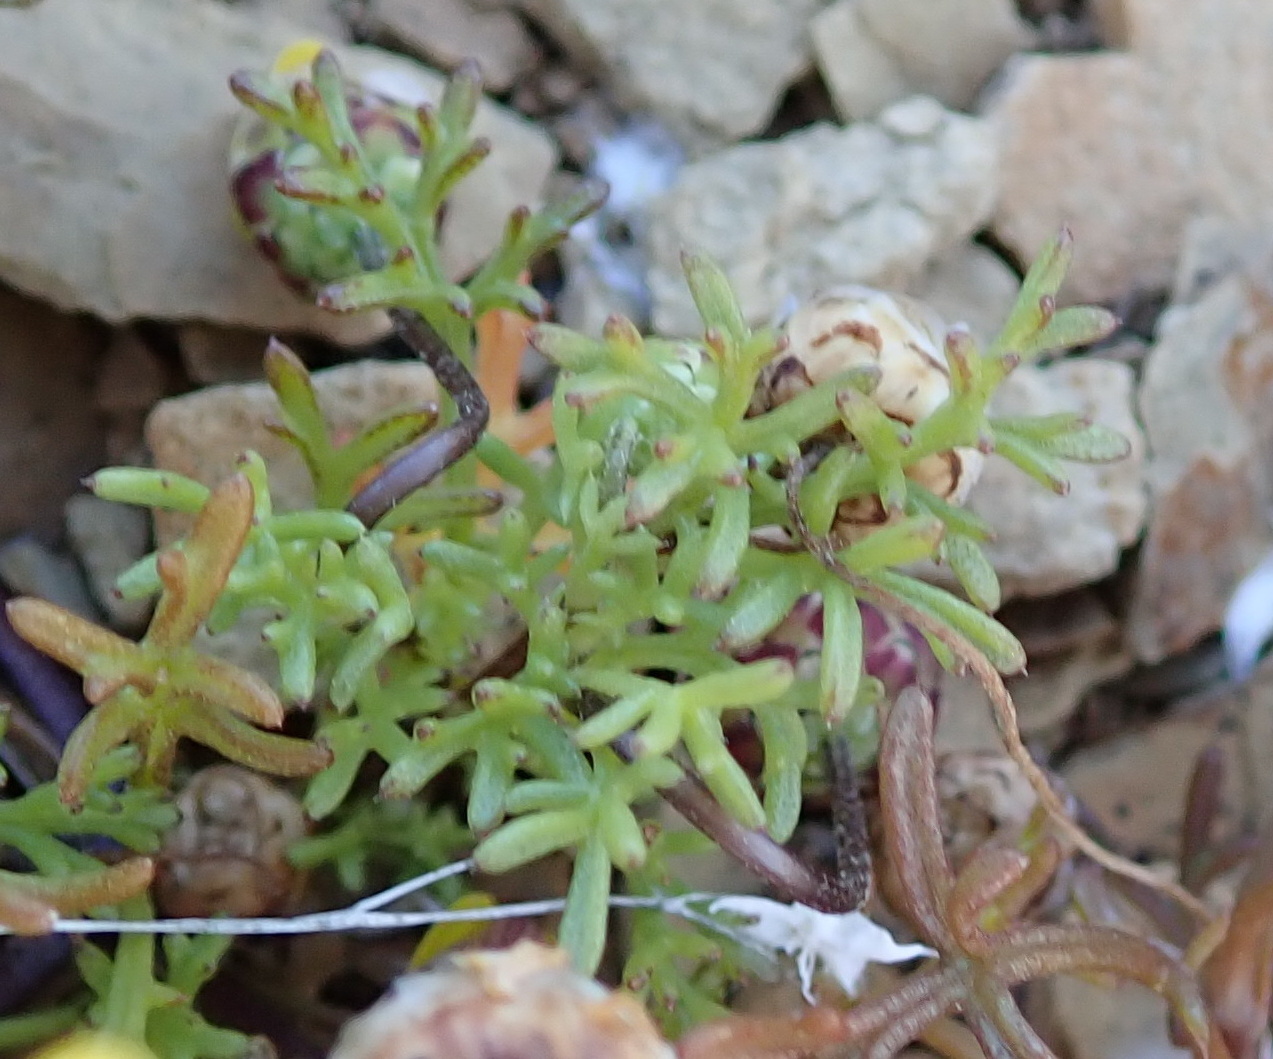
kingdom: Plantae
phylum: Tracheophyta
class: Magnoliopsida
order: Asterales
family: Asteraceae
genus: Ursinia
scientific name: Ursinia nana
